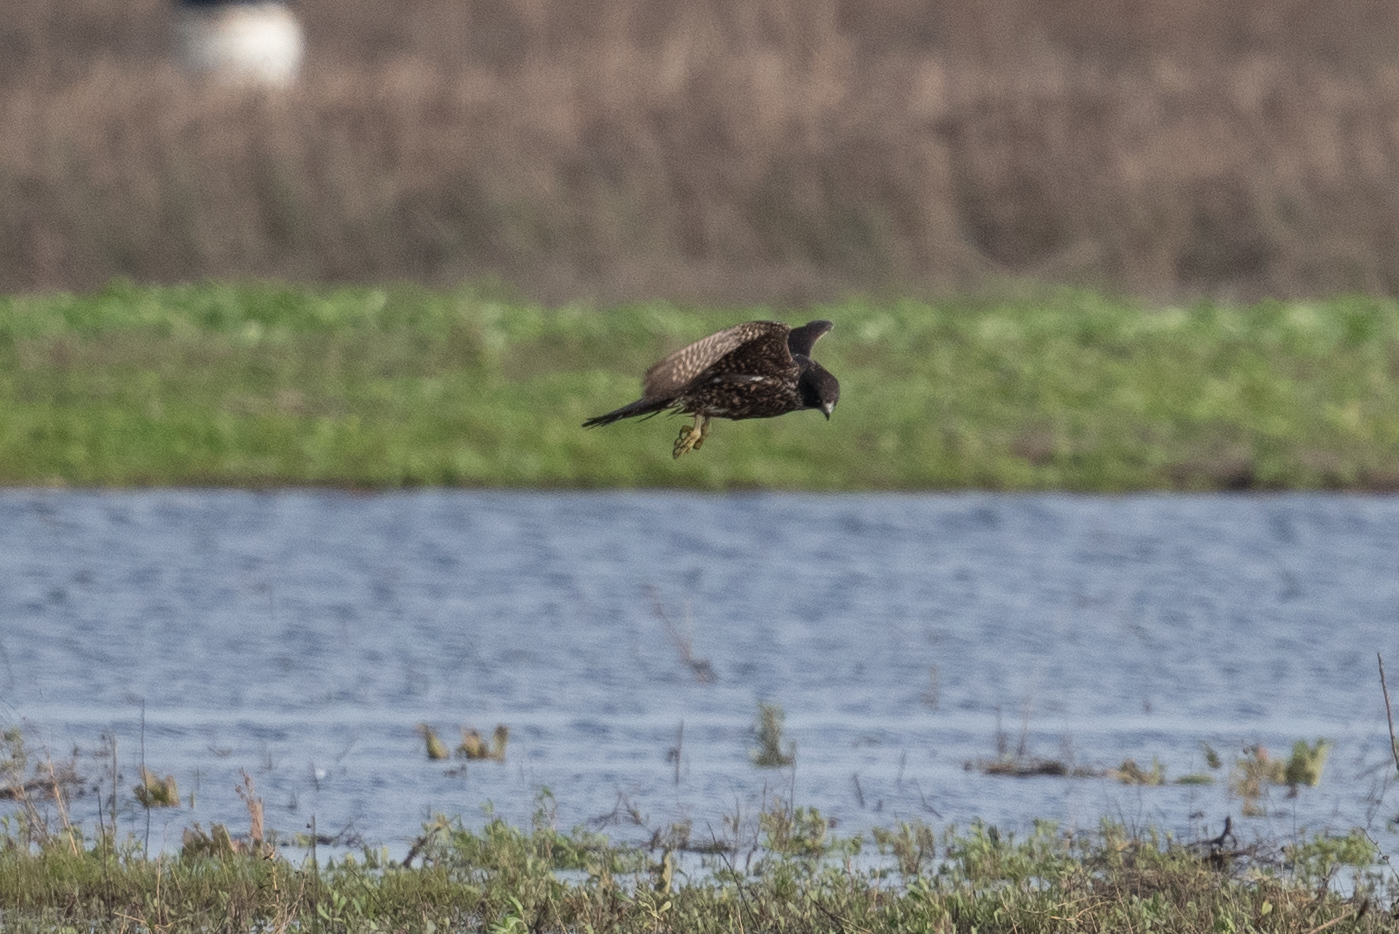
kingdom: Animalia
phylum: Chordata
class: Aves
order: Falconiformes
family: Falconidae
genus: Falco
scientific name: Falco peregrinus
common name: Peregrine falcon
